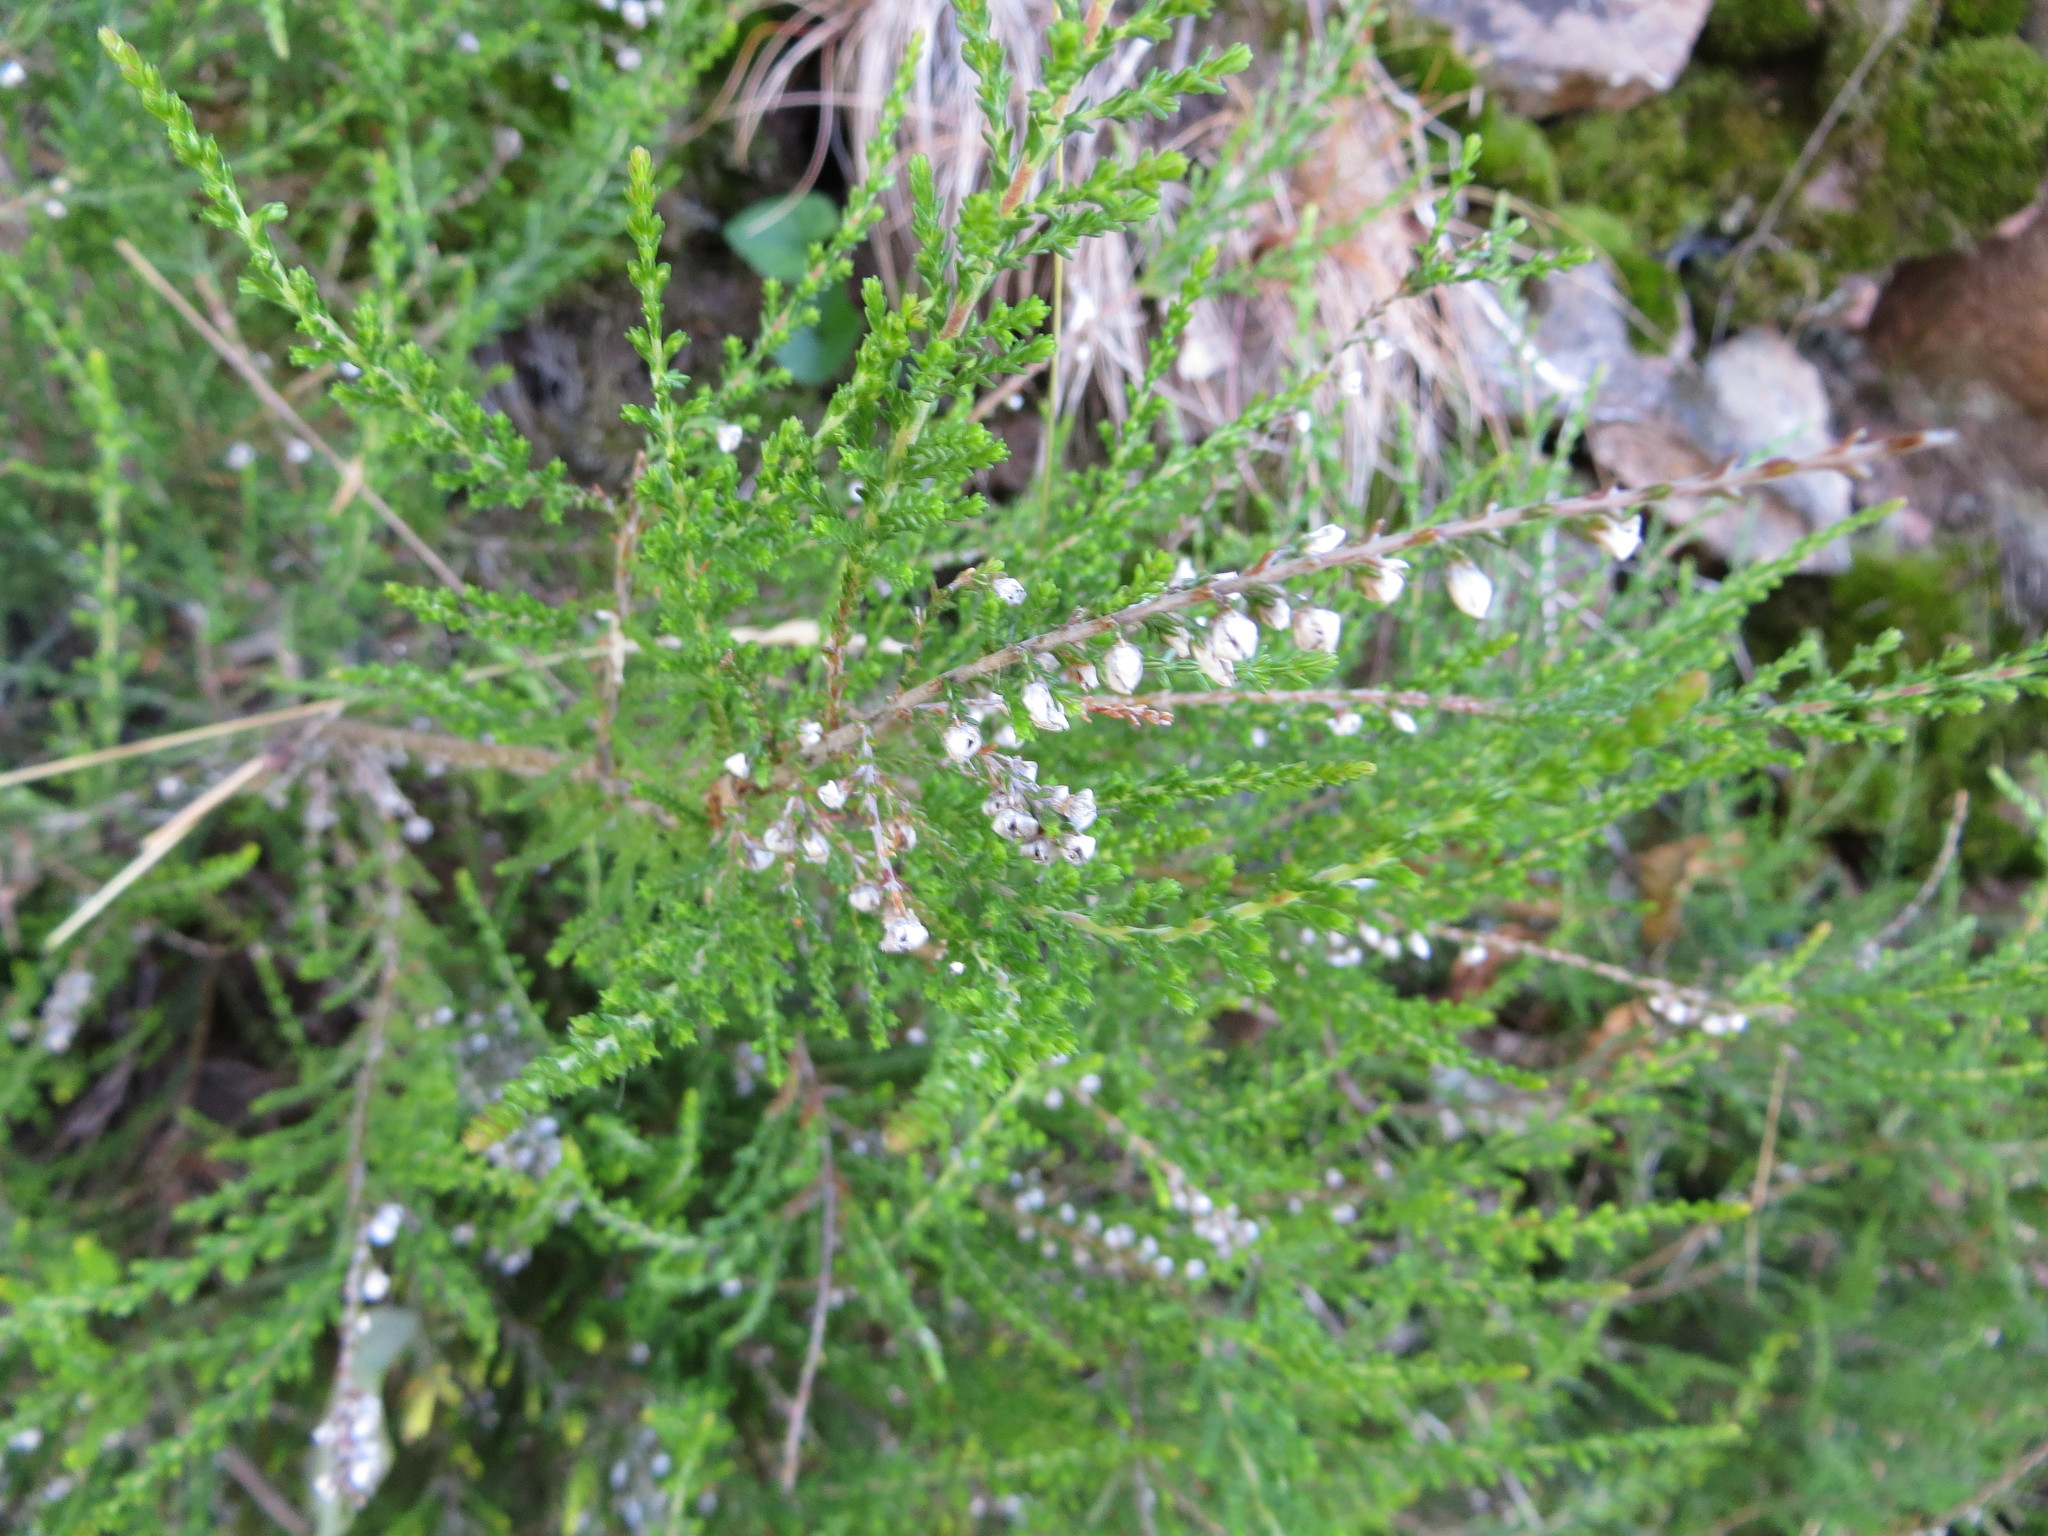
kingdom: Plantae
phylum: Tracheophyta
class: Magnoliopsida
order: Ericales
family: Ericaceae
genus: Calluna
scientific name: Calluna vulgaris
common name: Heather
